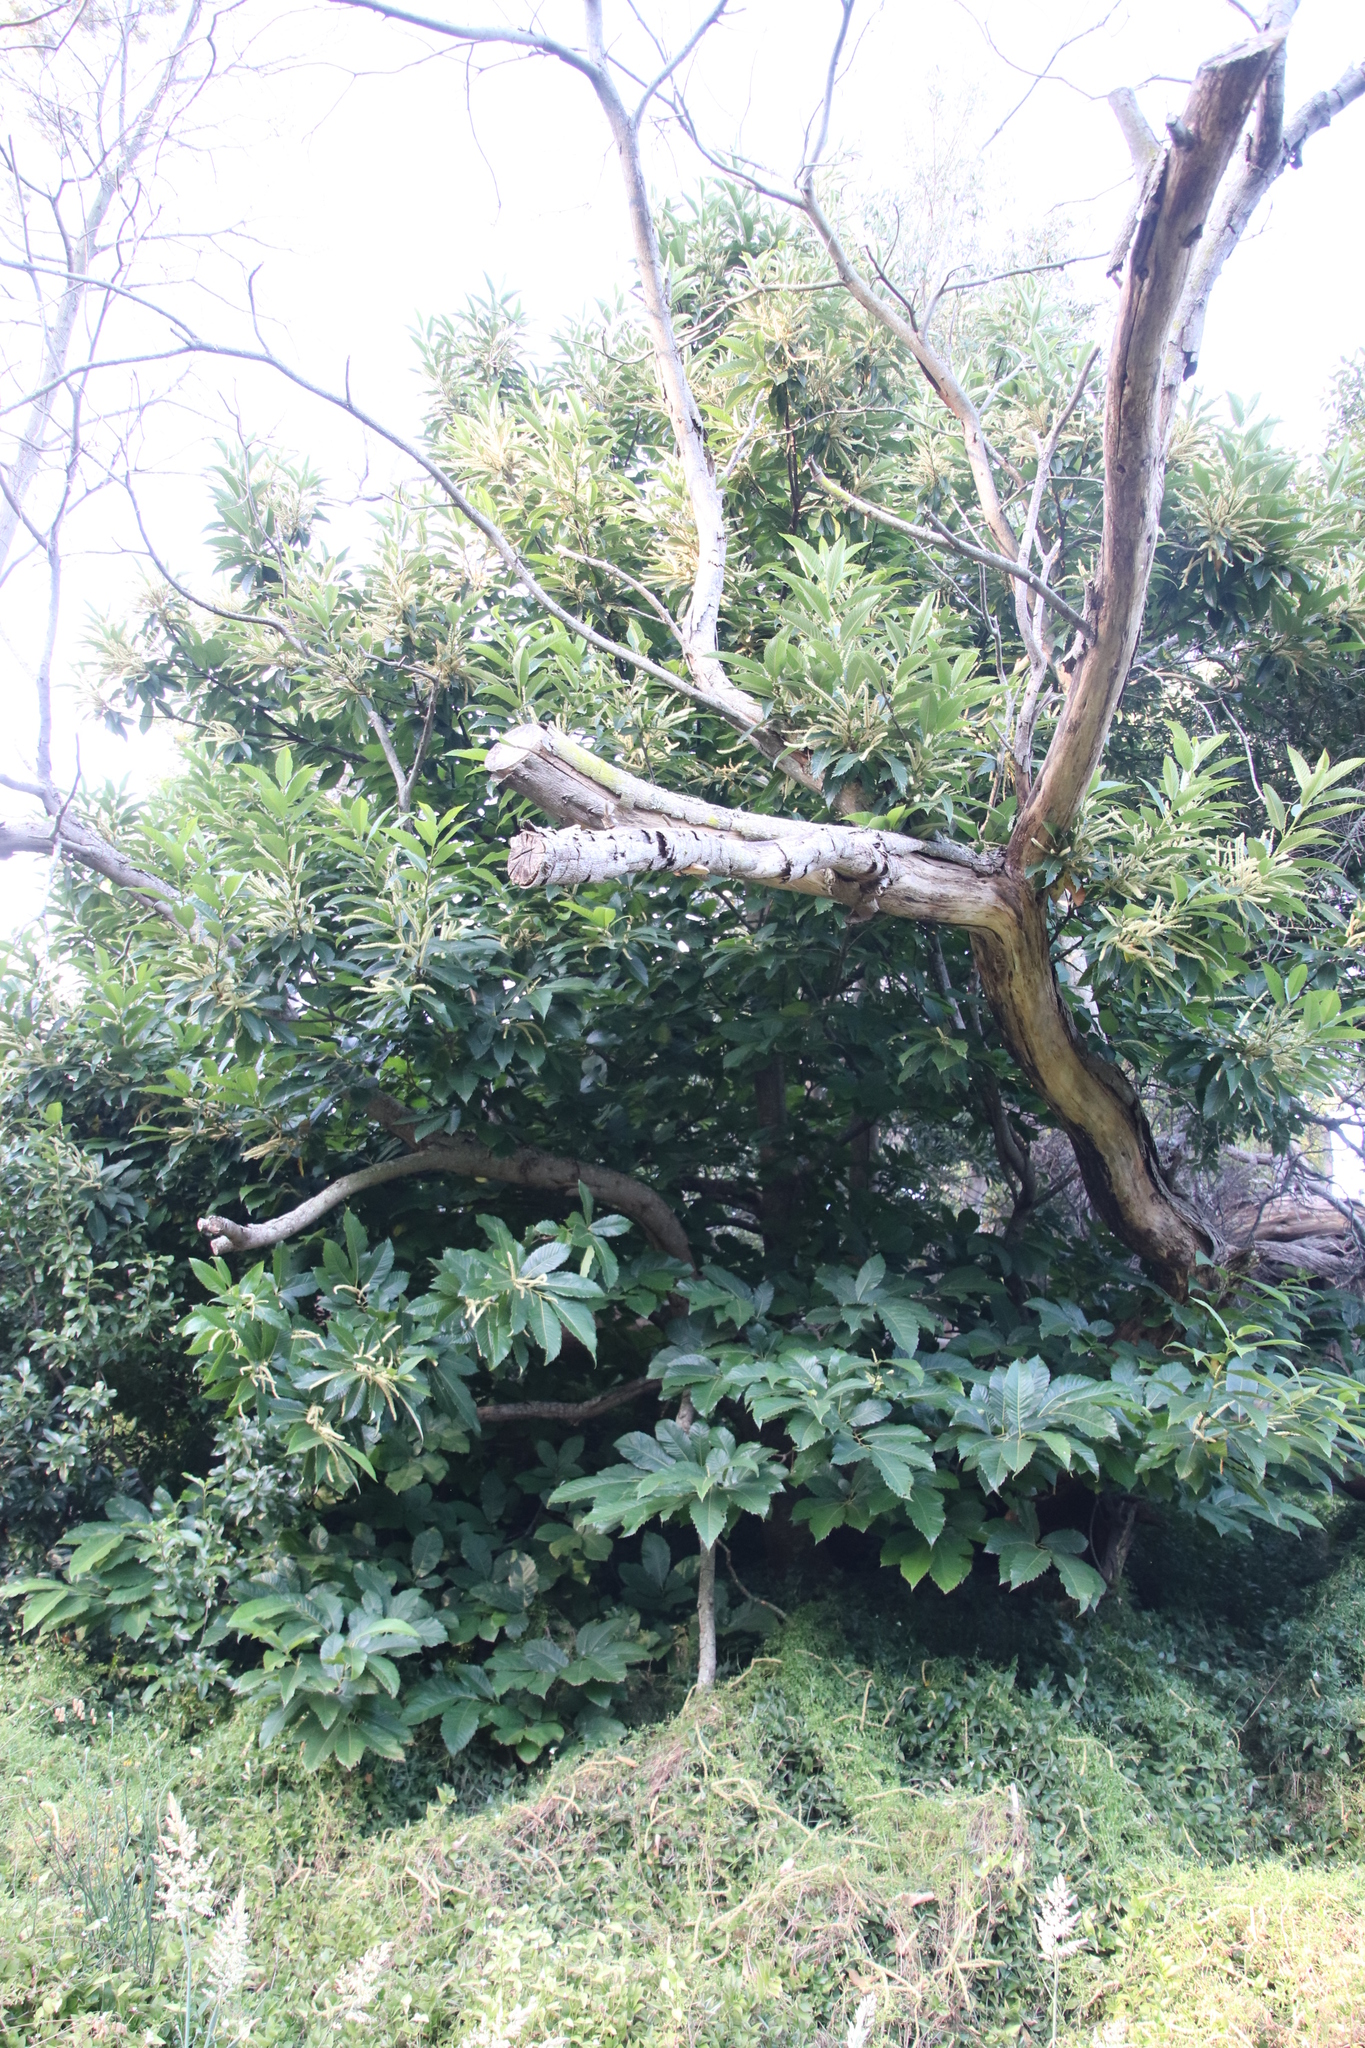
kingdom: Plantae
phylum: Tracheophyta
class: Magnoliopsida
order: Fagales
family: Fagaceae
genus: Castanea
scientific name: Castanea sativa
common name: Sweet chestnut
